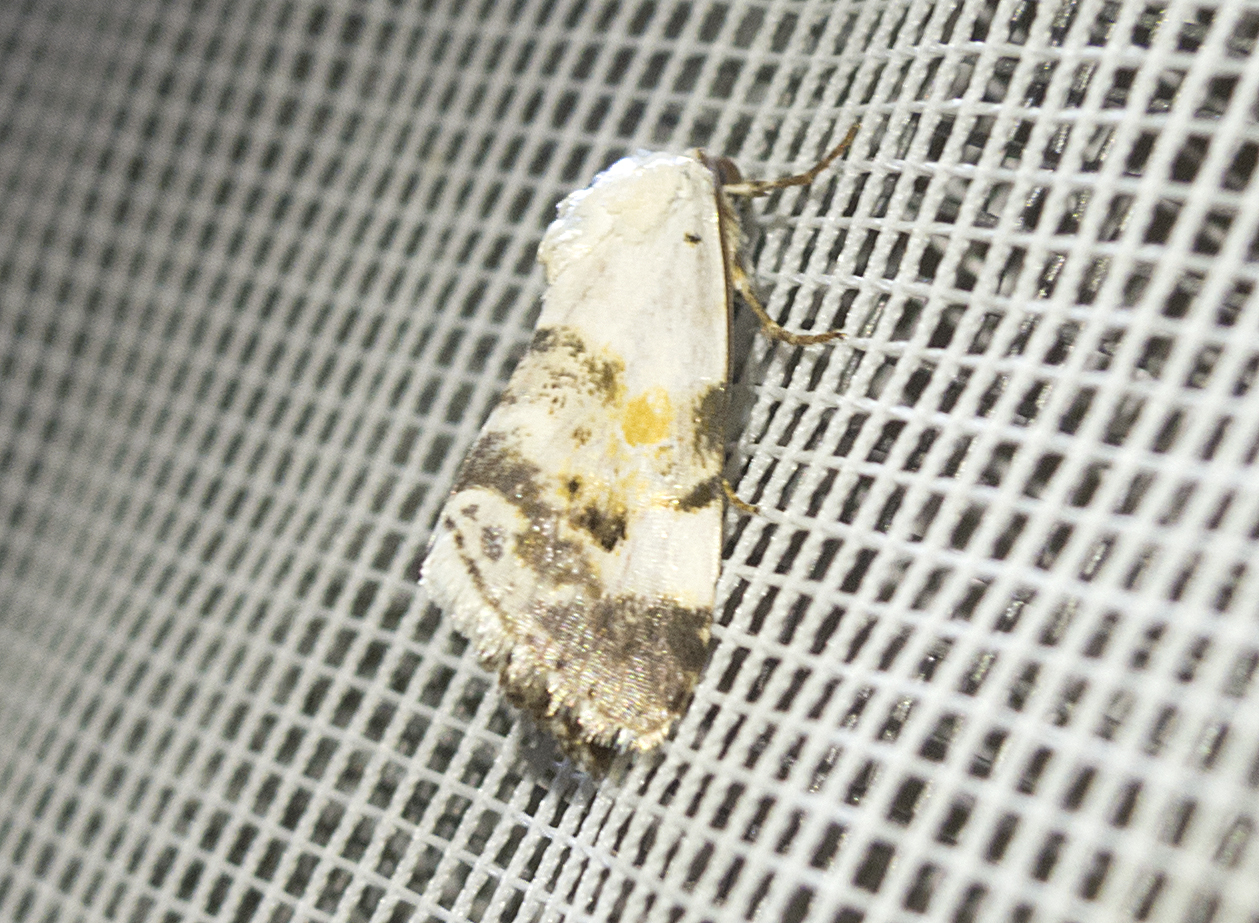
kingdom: Animalia
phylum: Arthropoda
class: Insecta
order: Lepidoptera
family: Noctuidae
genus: Acontia
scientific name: Acontia candefacta
